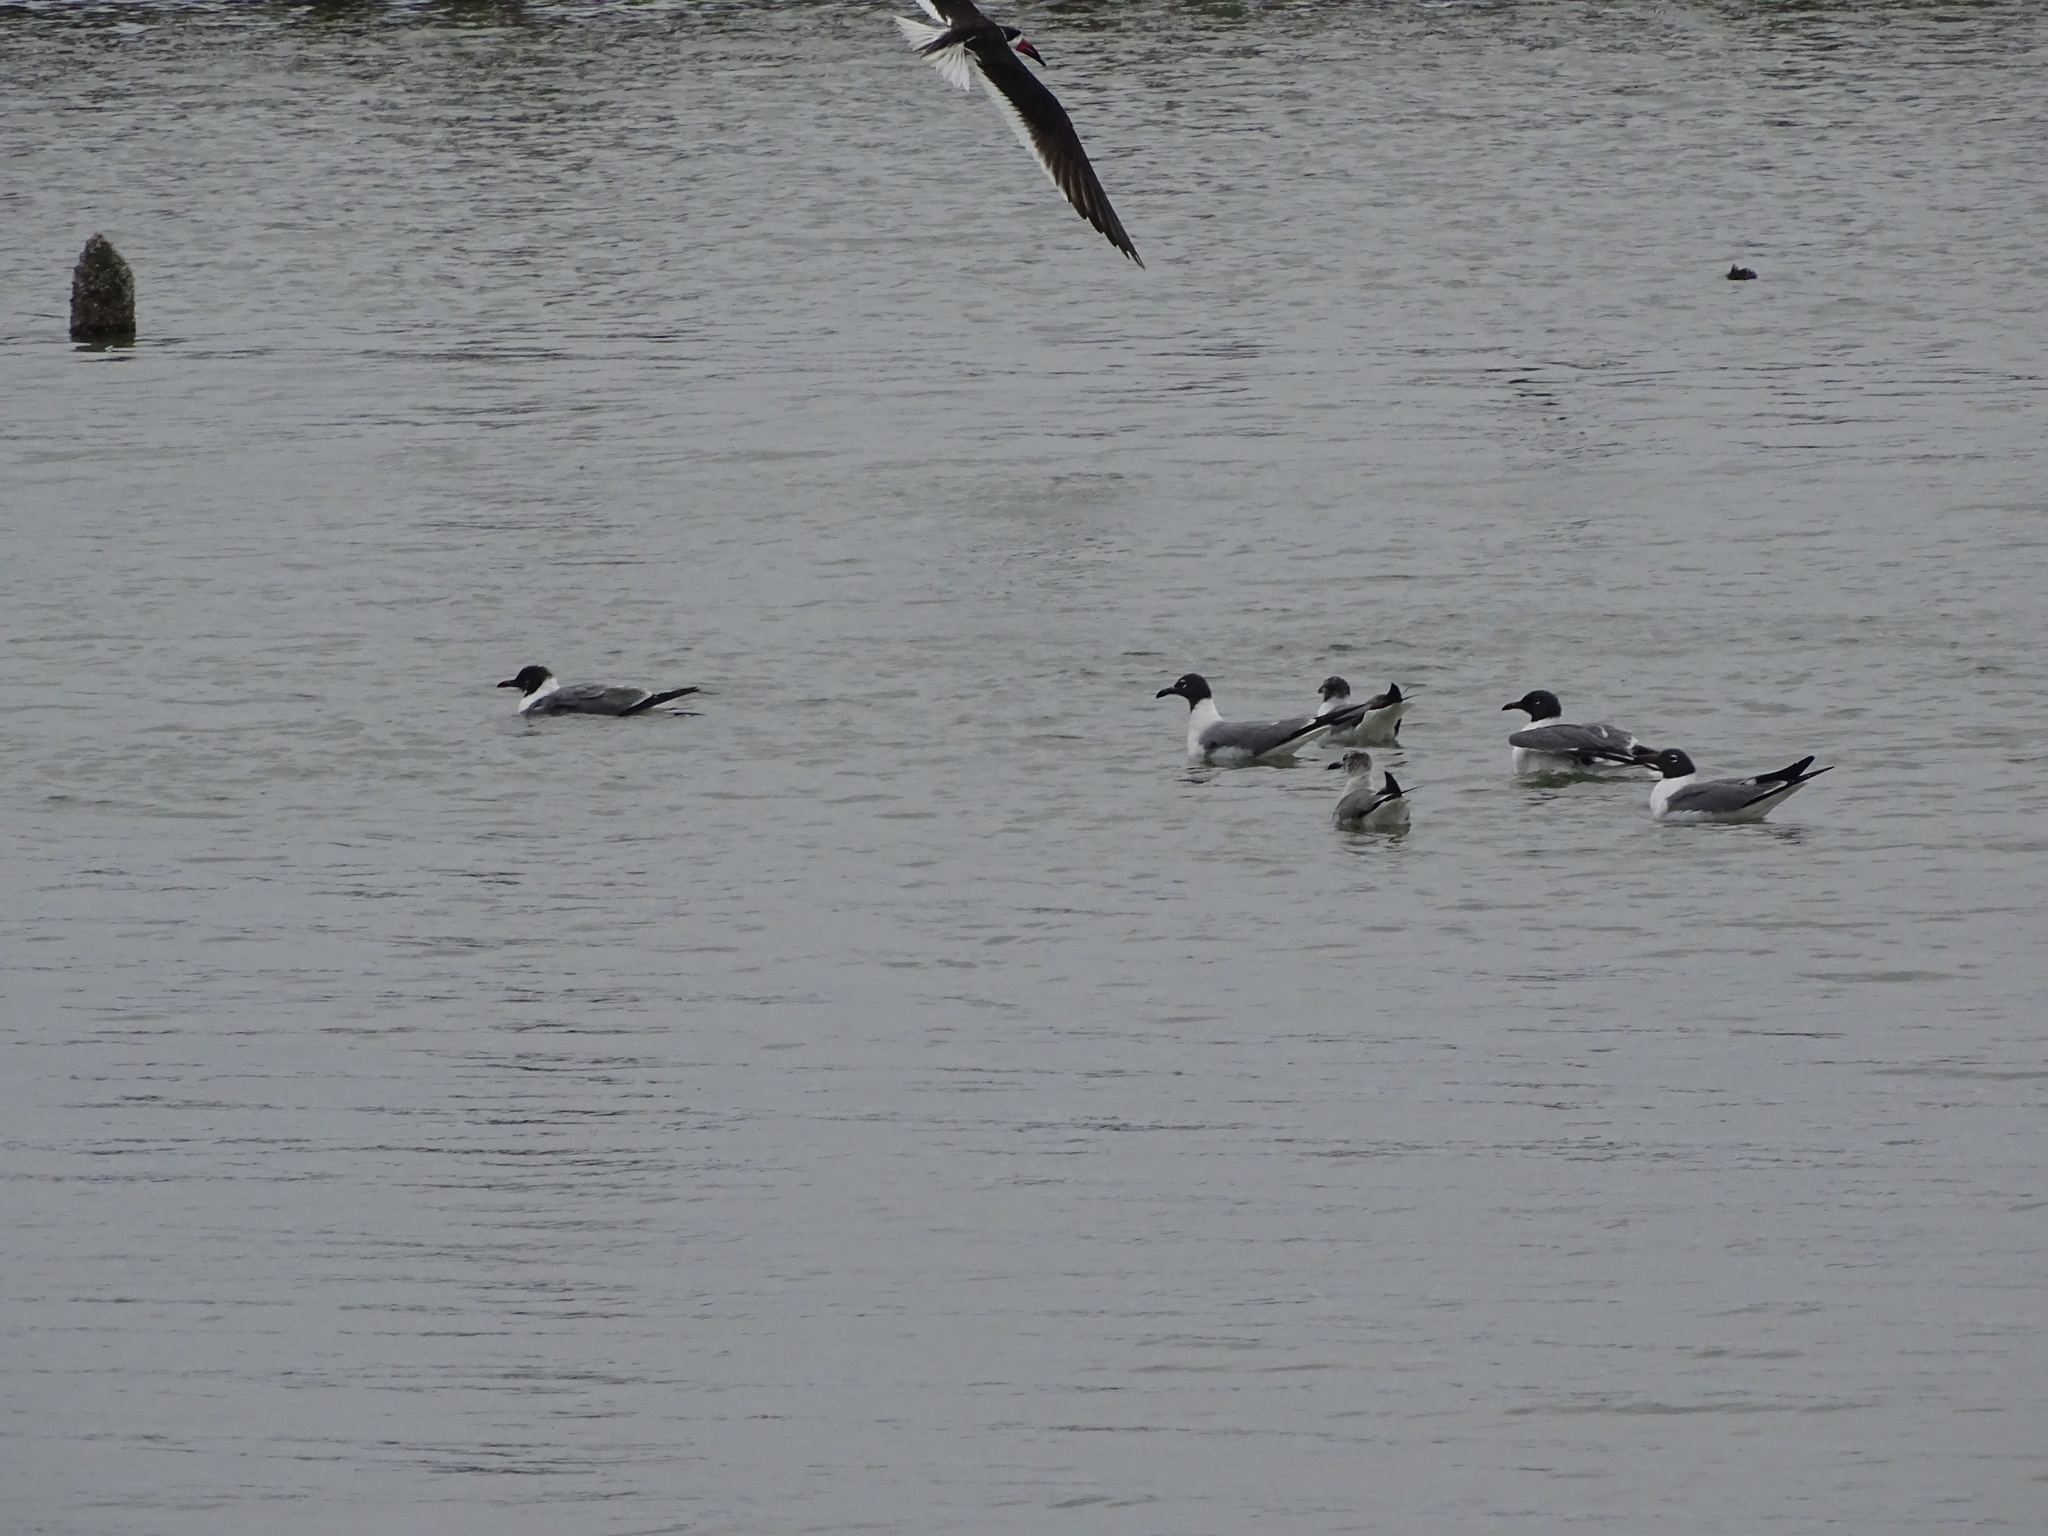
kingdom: Animalia
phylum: Chordata
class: Aves
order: Charadriiformes
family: Laridae
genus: Leucophaeus
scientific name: Leucophaeus atricilla
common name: Laughing gull
